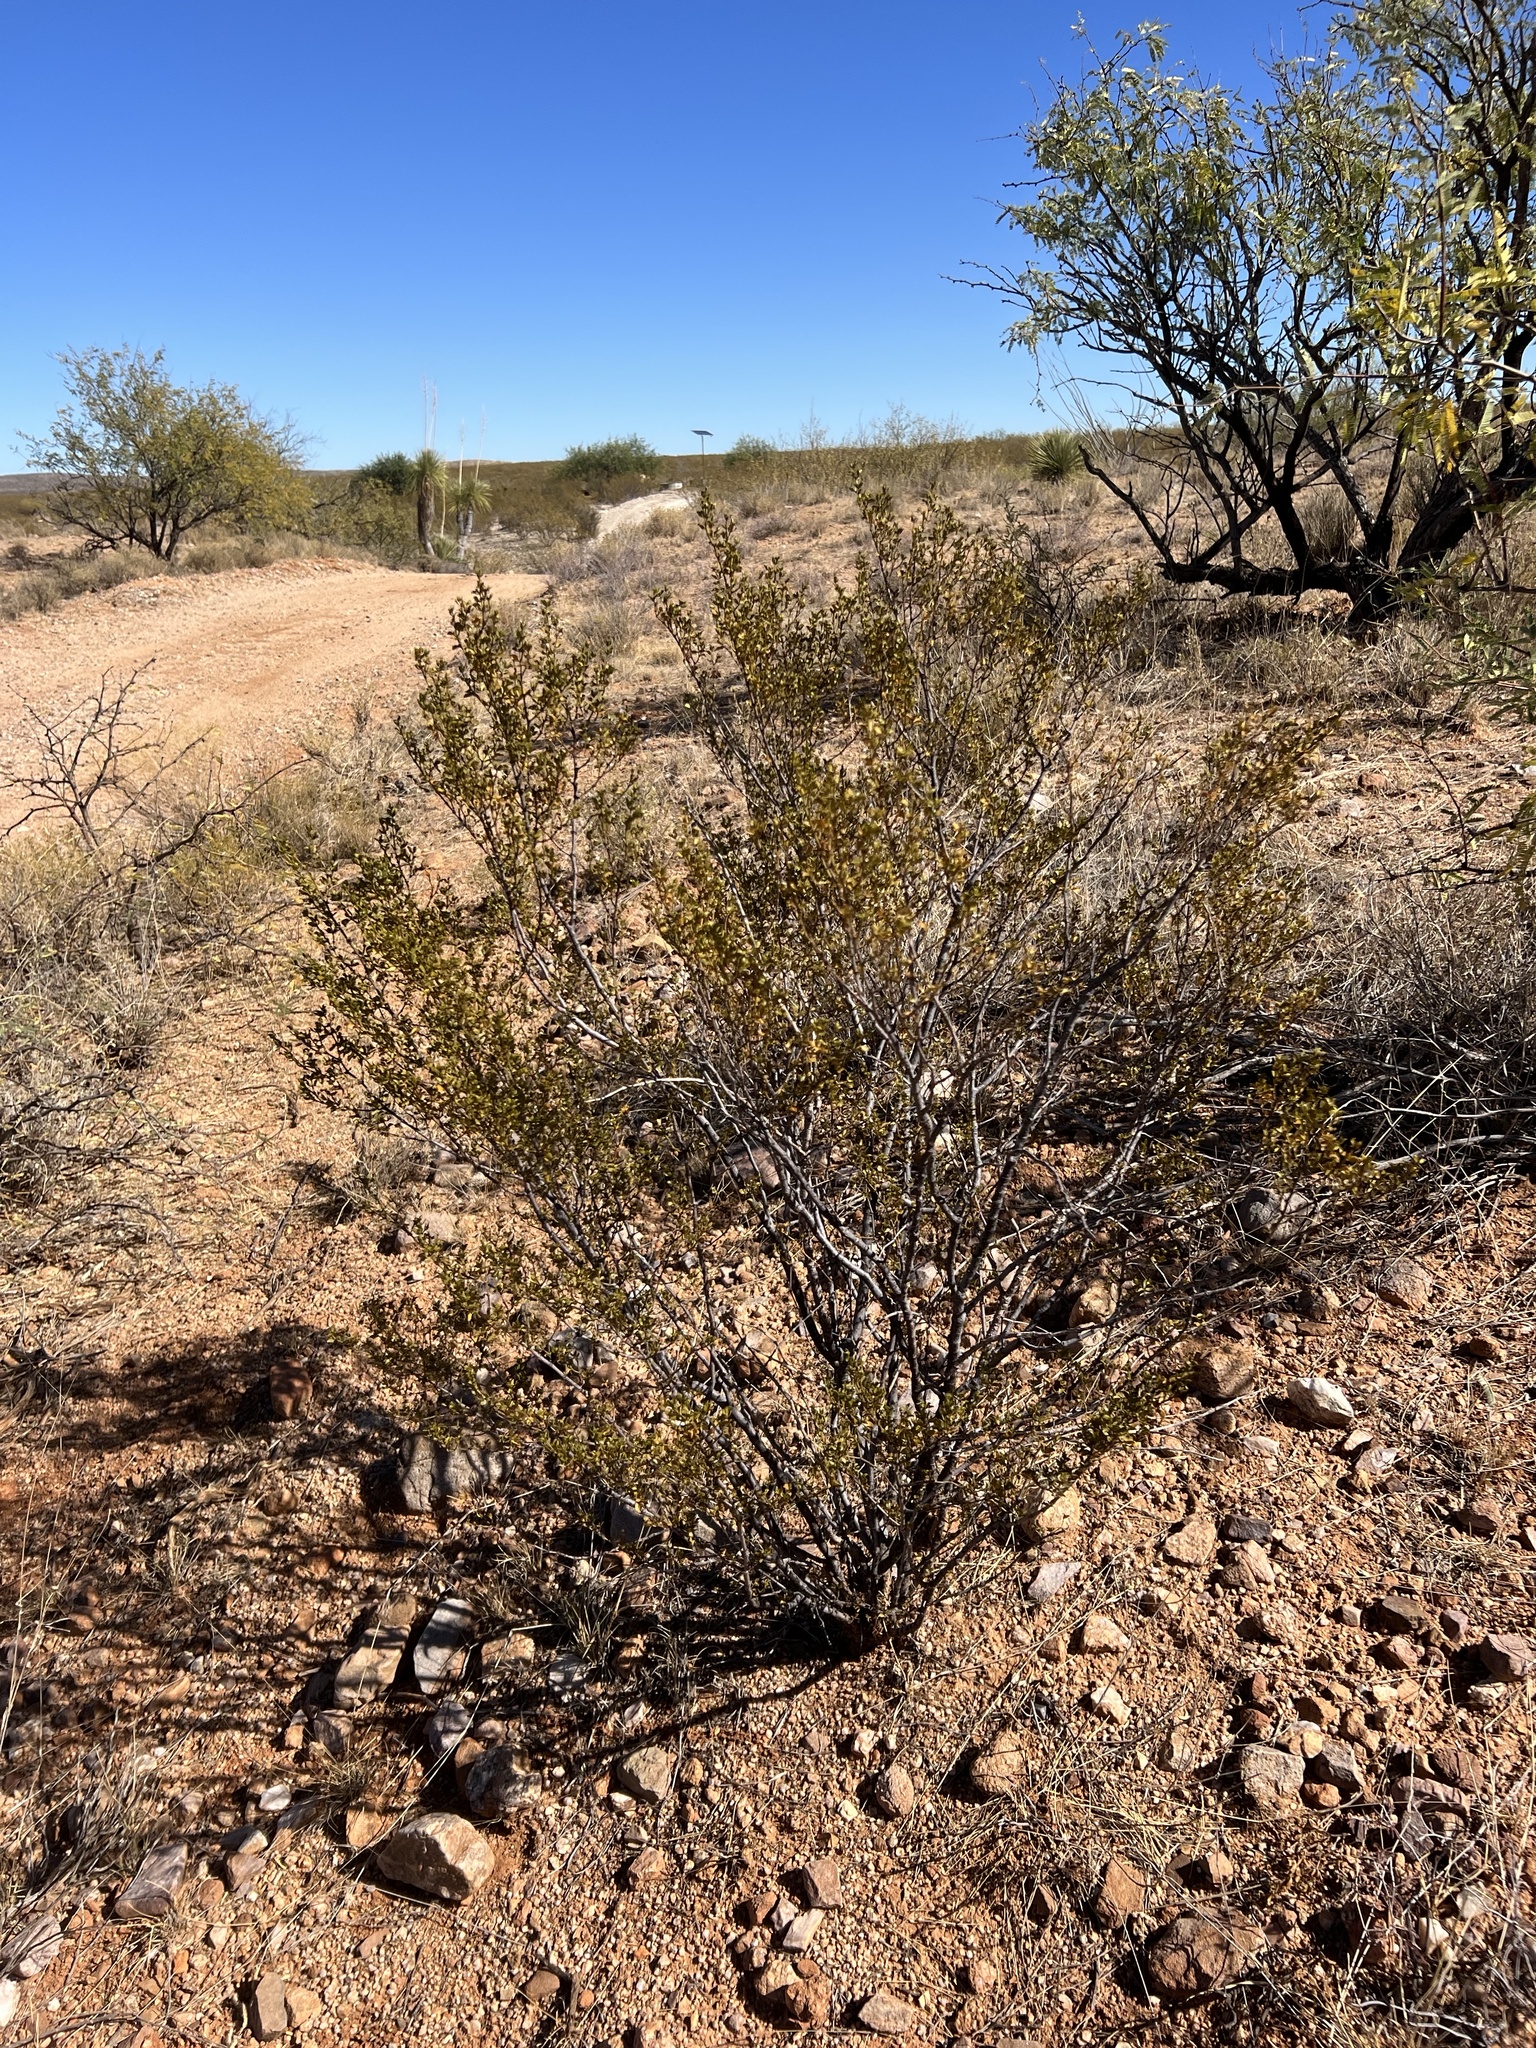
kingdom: Plantae
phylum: Tracheophyta
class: Magnoliopsida
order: Zygophyllales
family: Zygophyllaceae
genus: Larrea
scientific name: Larrea tridentata
